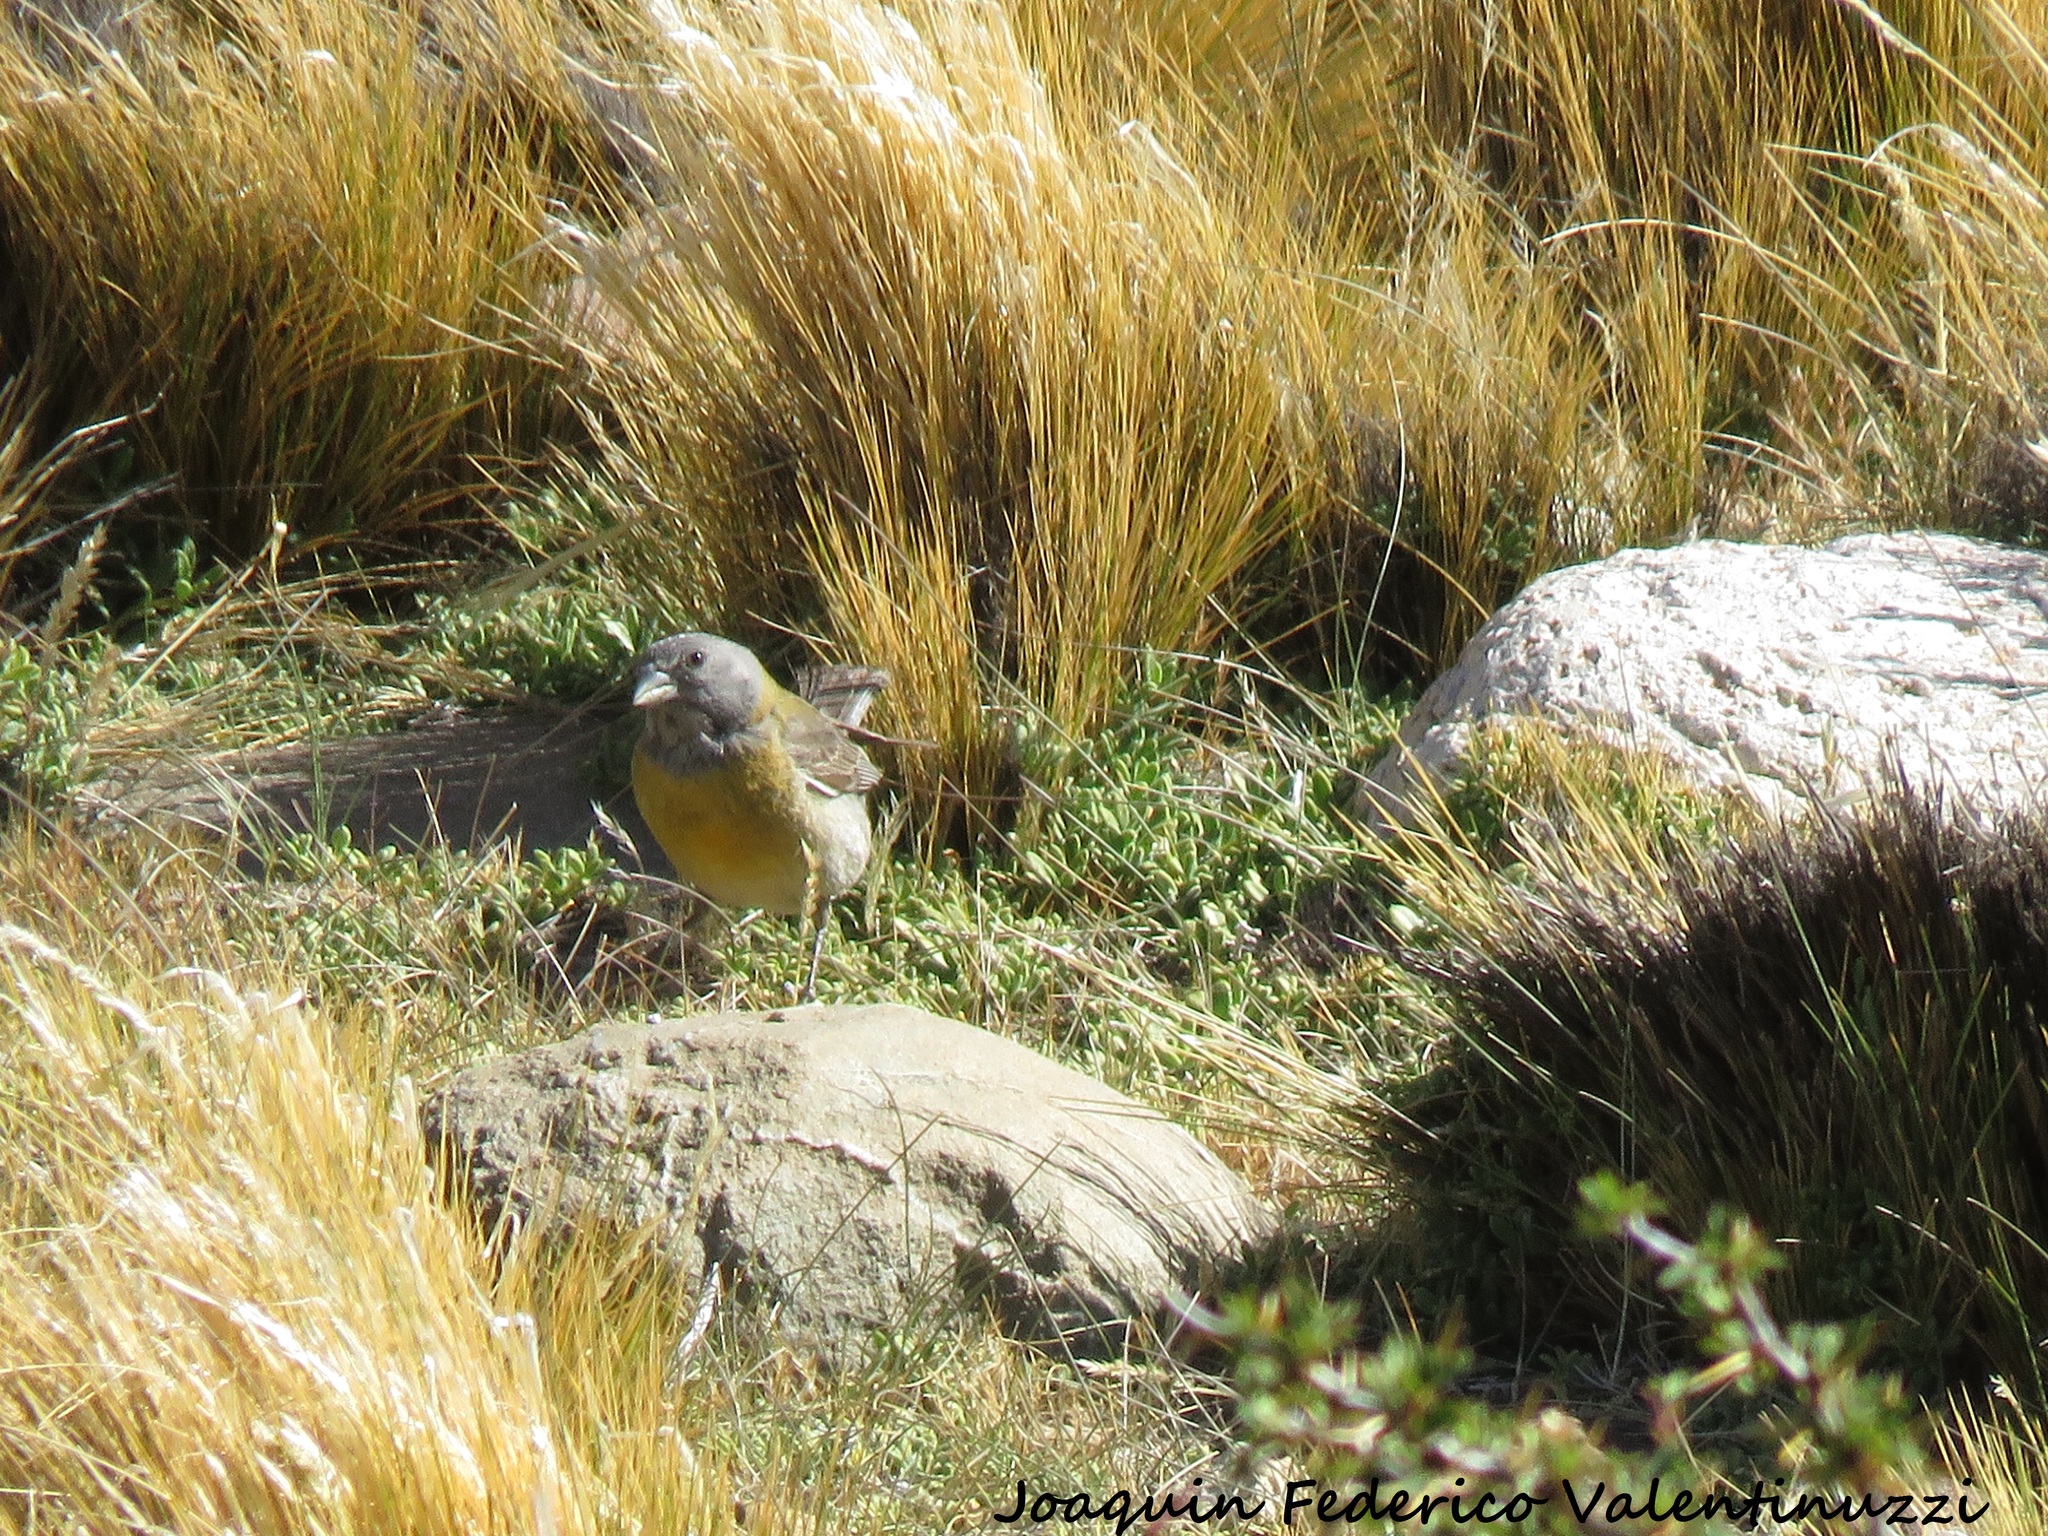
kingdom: Animalia
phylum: Chordata
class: Aves
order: Passeriformes
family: Thraupidae
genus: Phrygilus
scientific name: Phrygilus gayi
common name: Grey-hooded sierra finch
